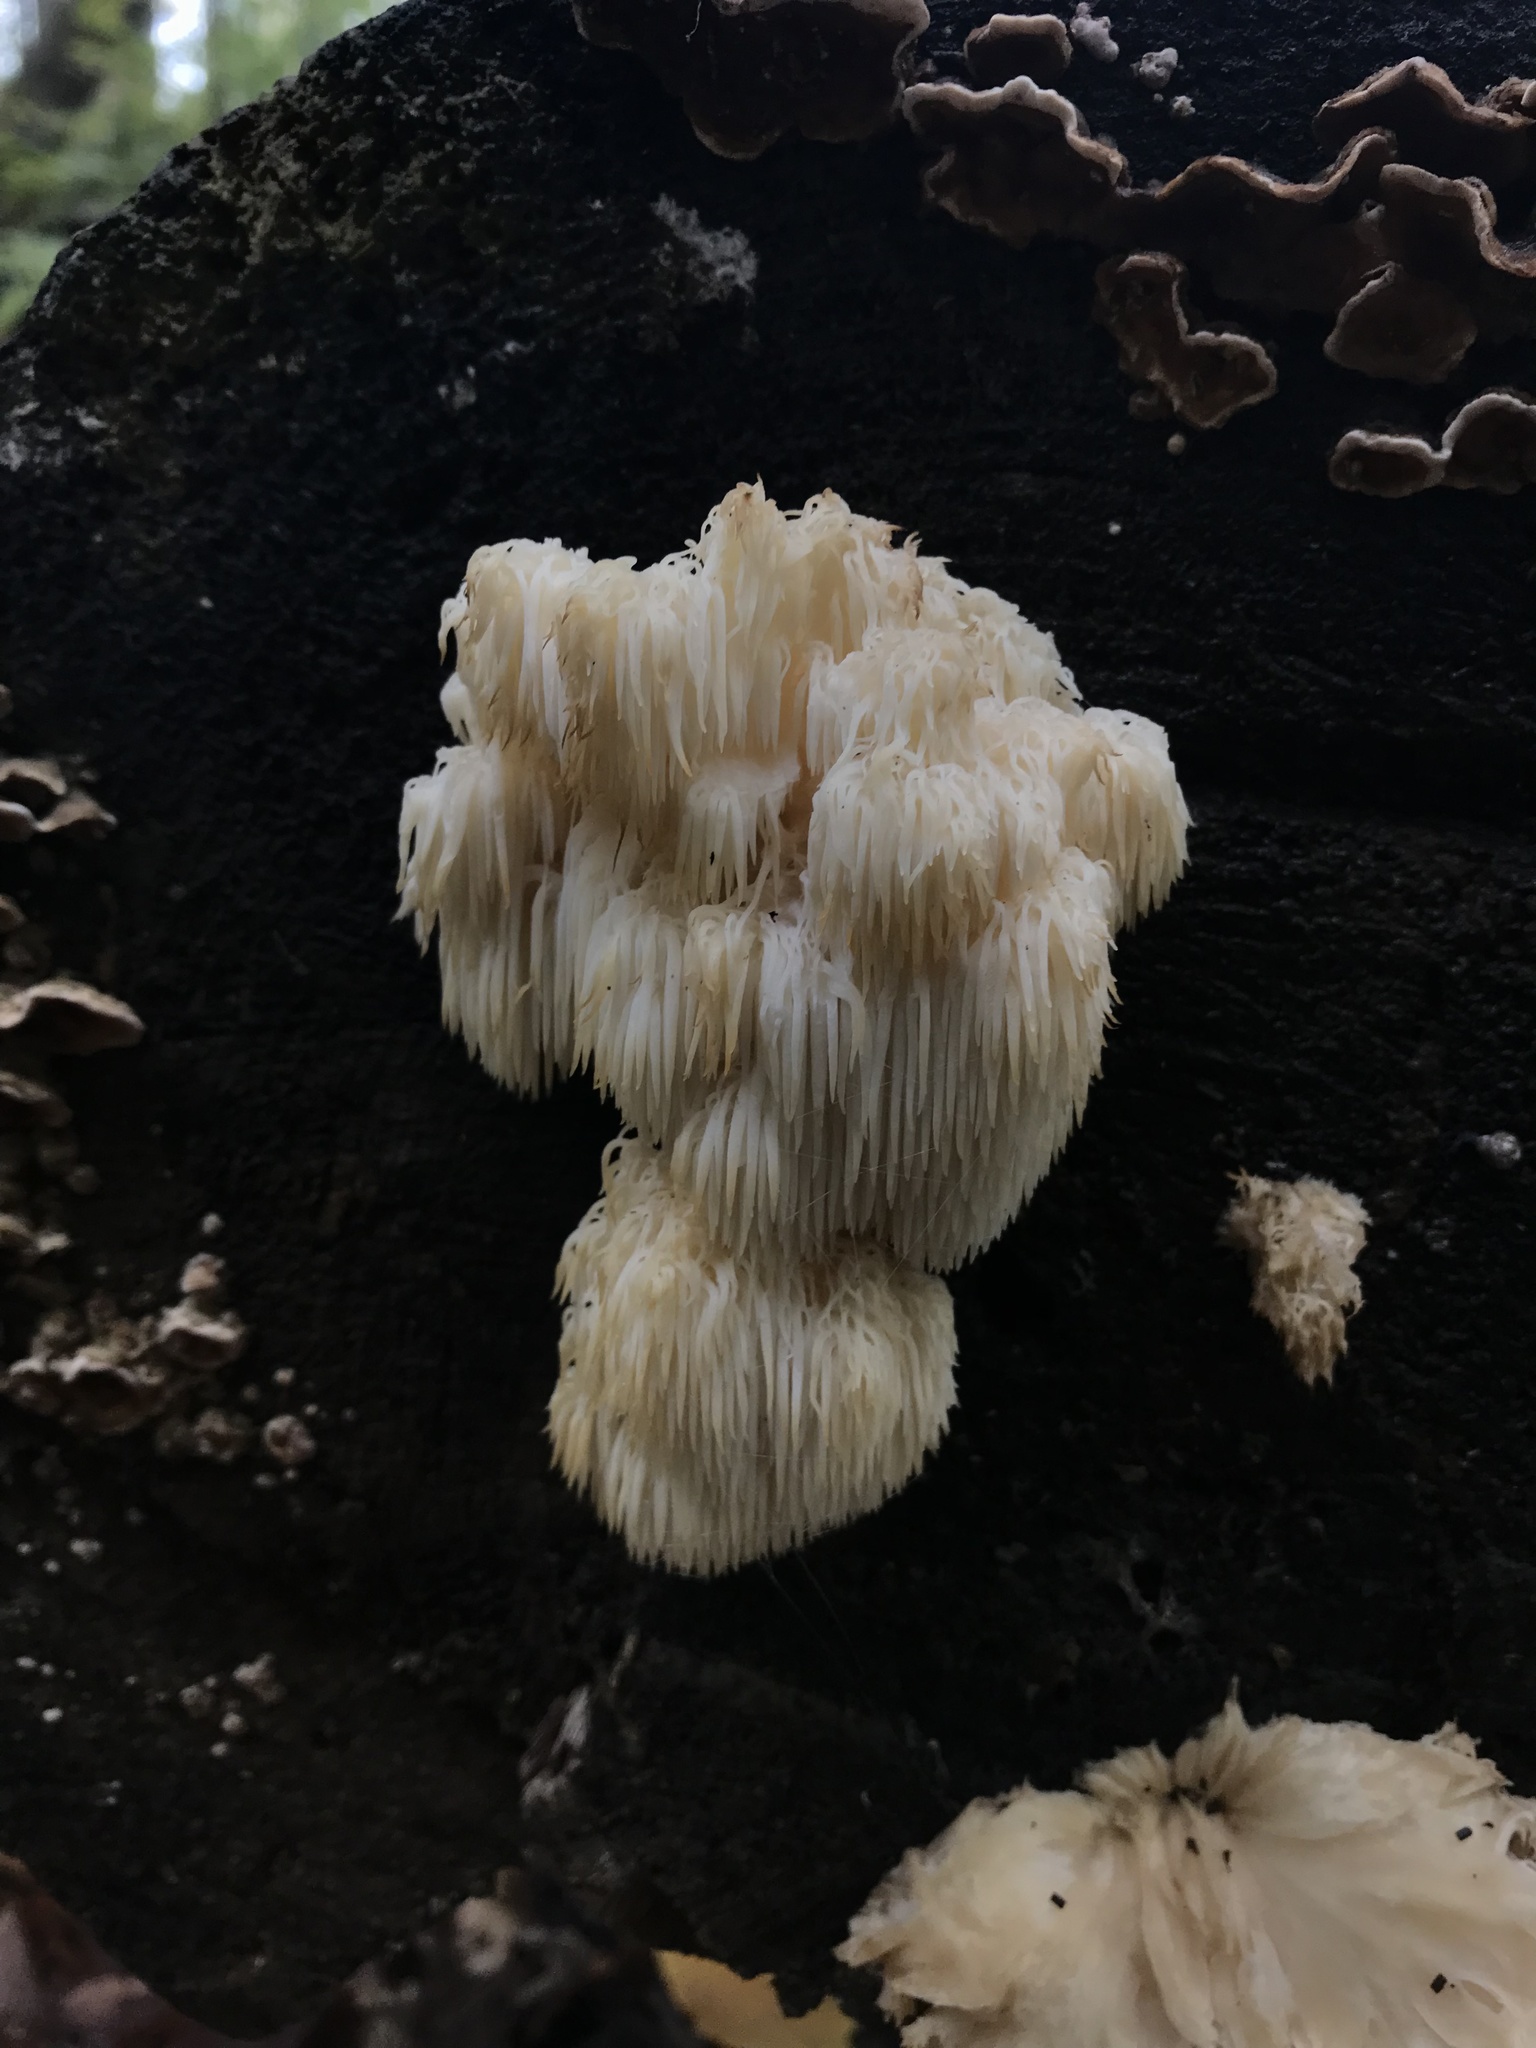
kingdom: Fungi
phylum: Basidiomycota
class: Agaricomycetes
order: Russulales
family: Hericiaceae
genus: Hericium
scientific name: Hericium americanum
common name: Bear's head tooth
